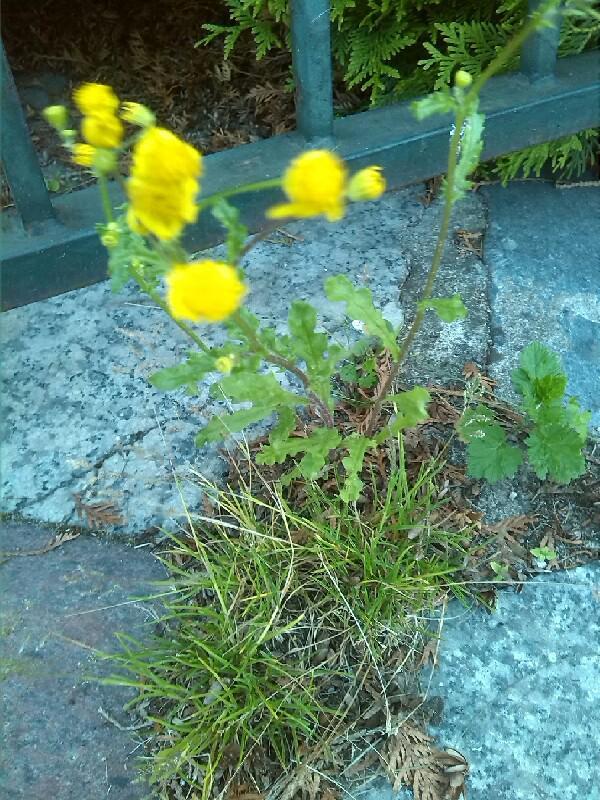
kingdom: Plantae
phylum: Tracheophyta
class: Magnoliopsida
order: Asterales
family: Asteraceae
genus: Senecio
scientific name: Senecio vernalis
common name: Eastern groundsel
